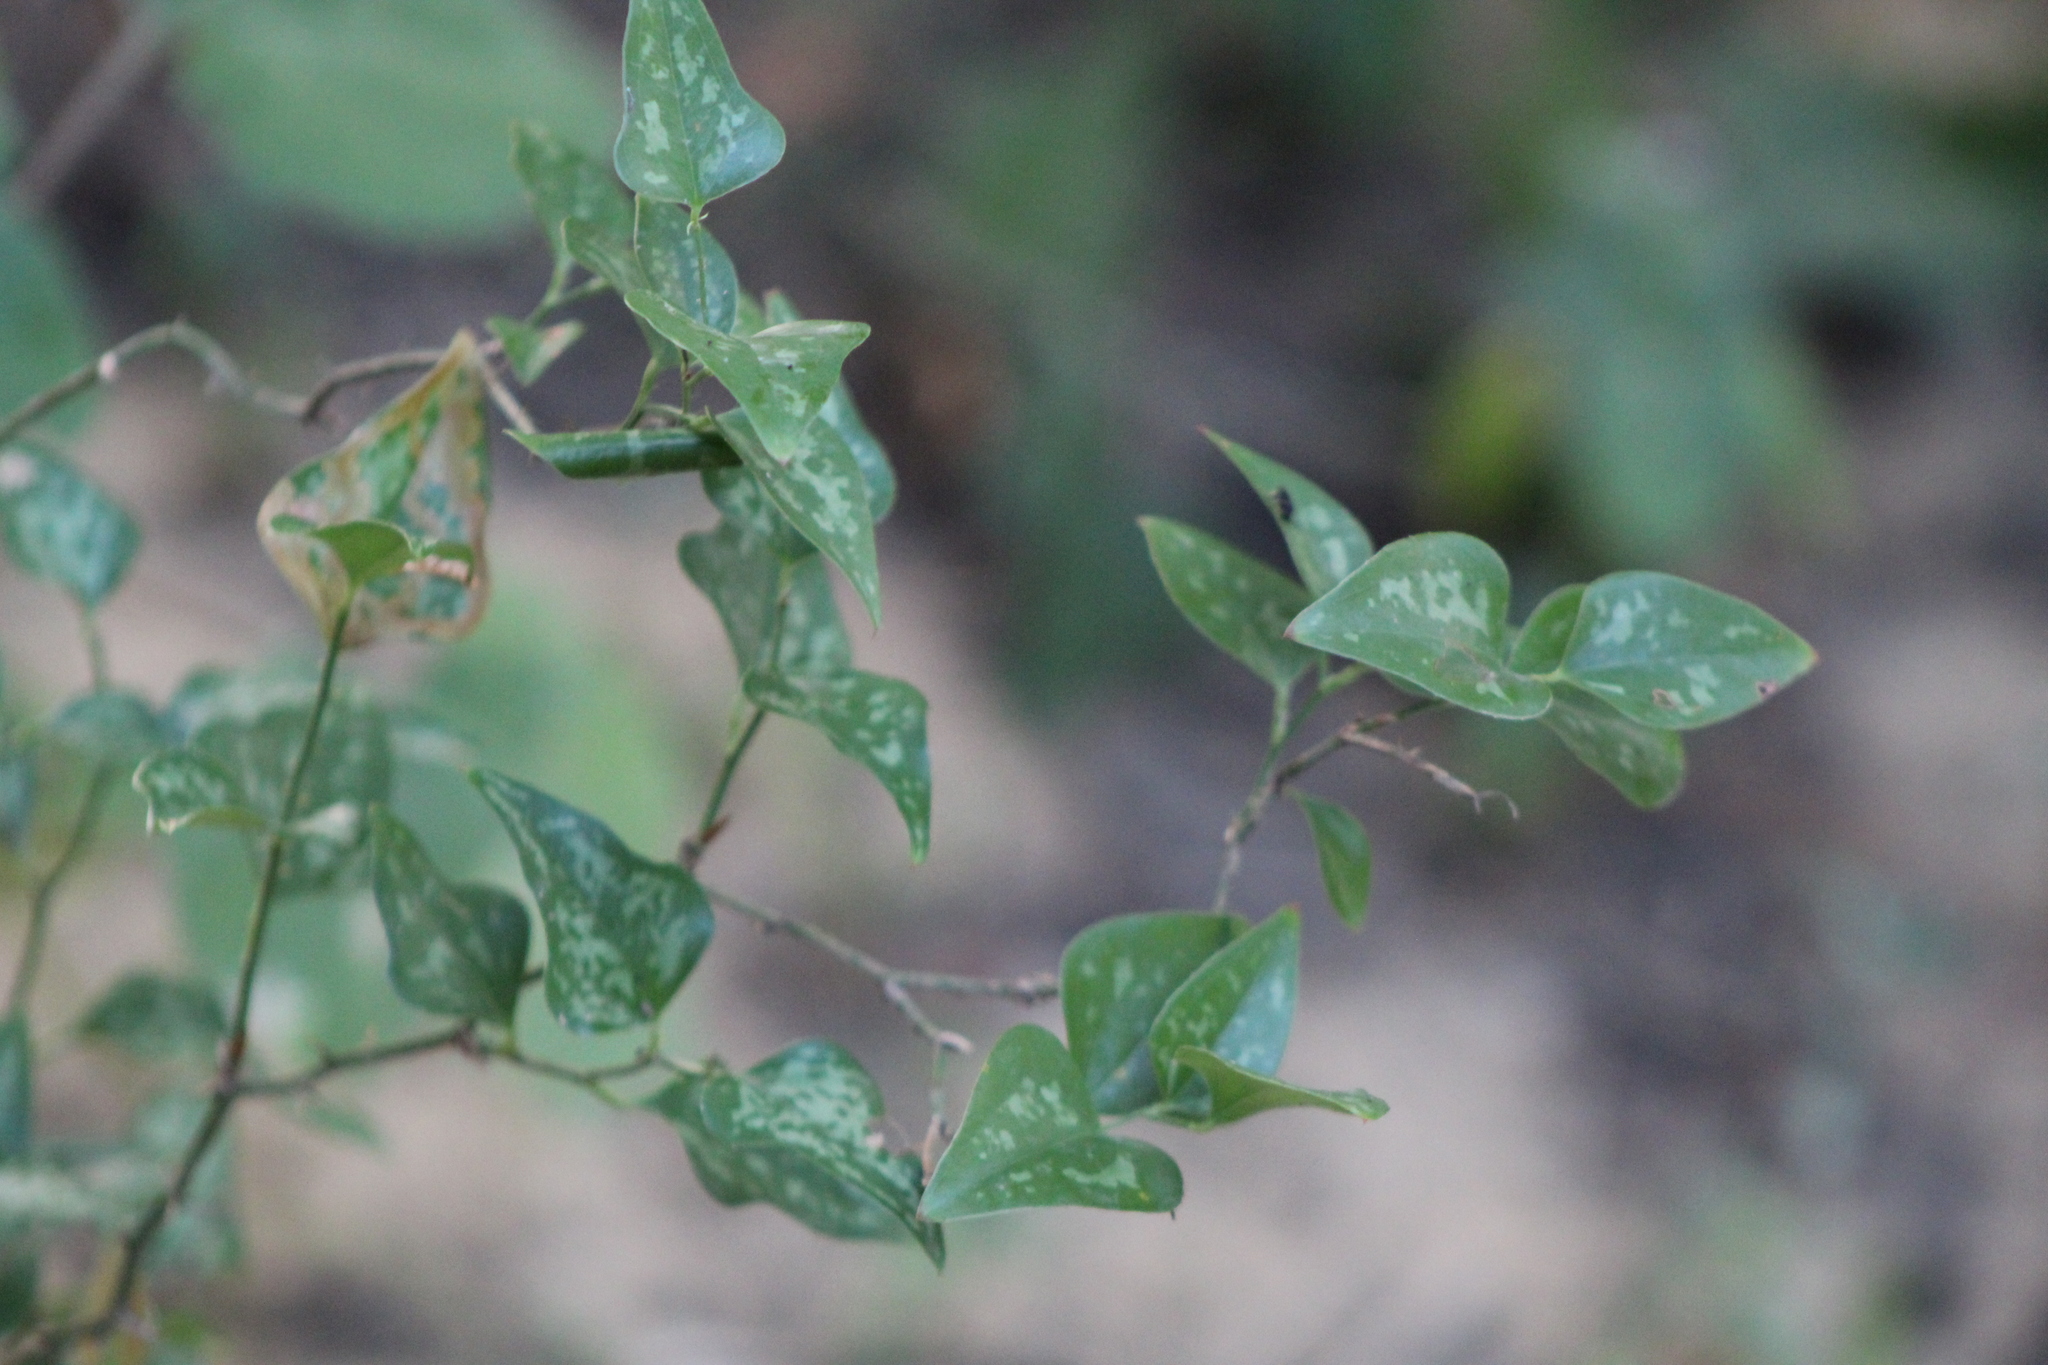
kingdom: Plantae
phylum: Tracheophyta
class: Liliopsida
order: Liliales
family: Smilacaceae
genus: Smilax
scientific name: Smilax bona-nox
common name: Catbrier
